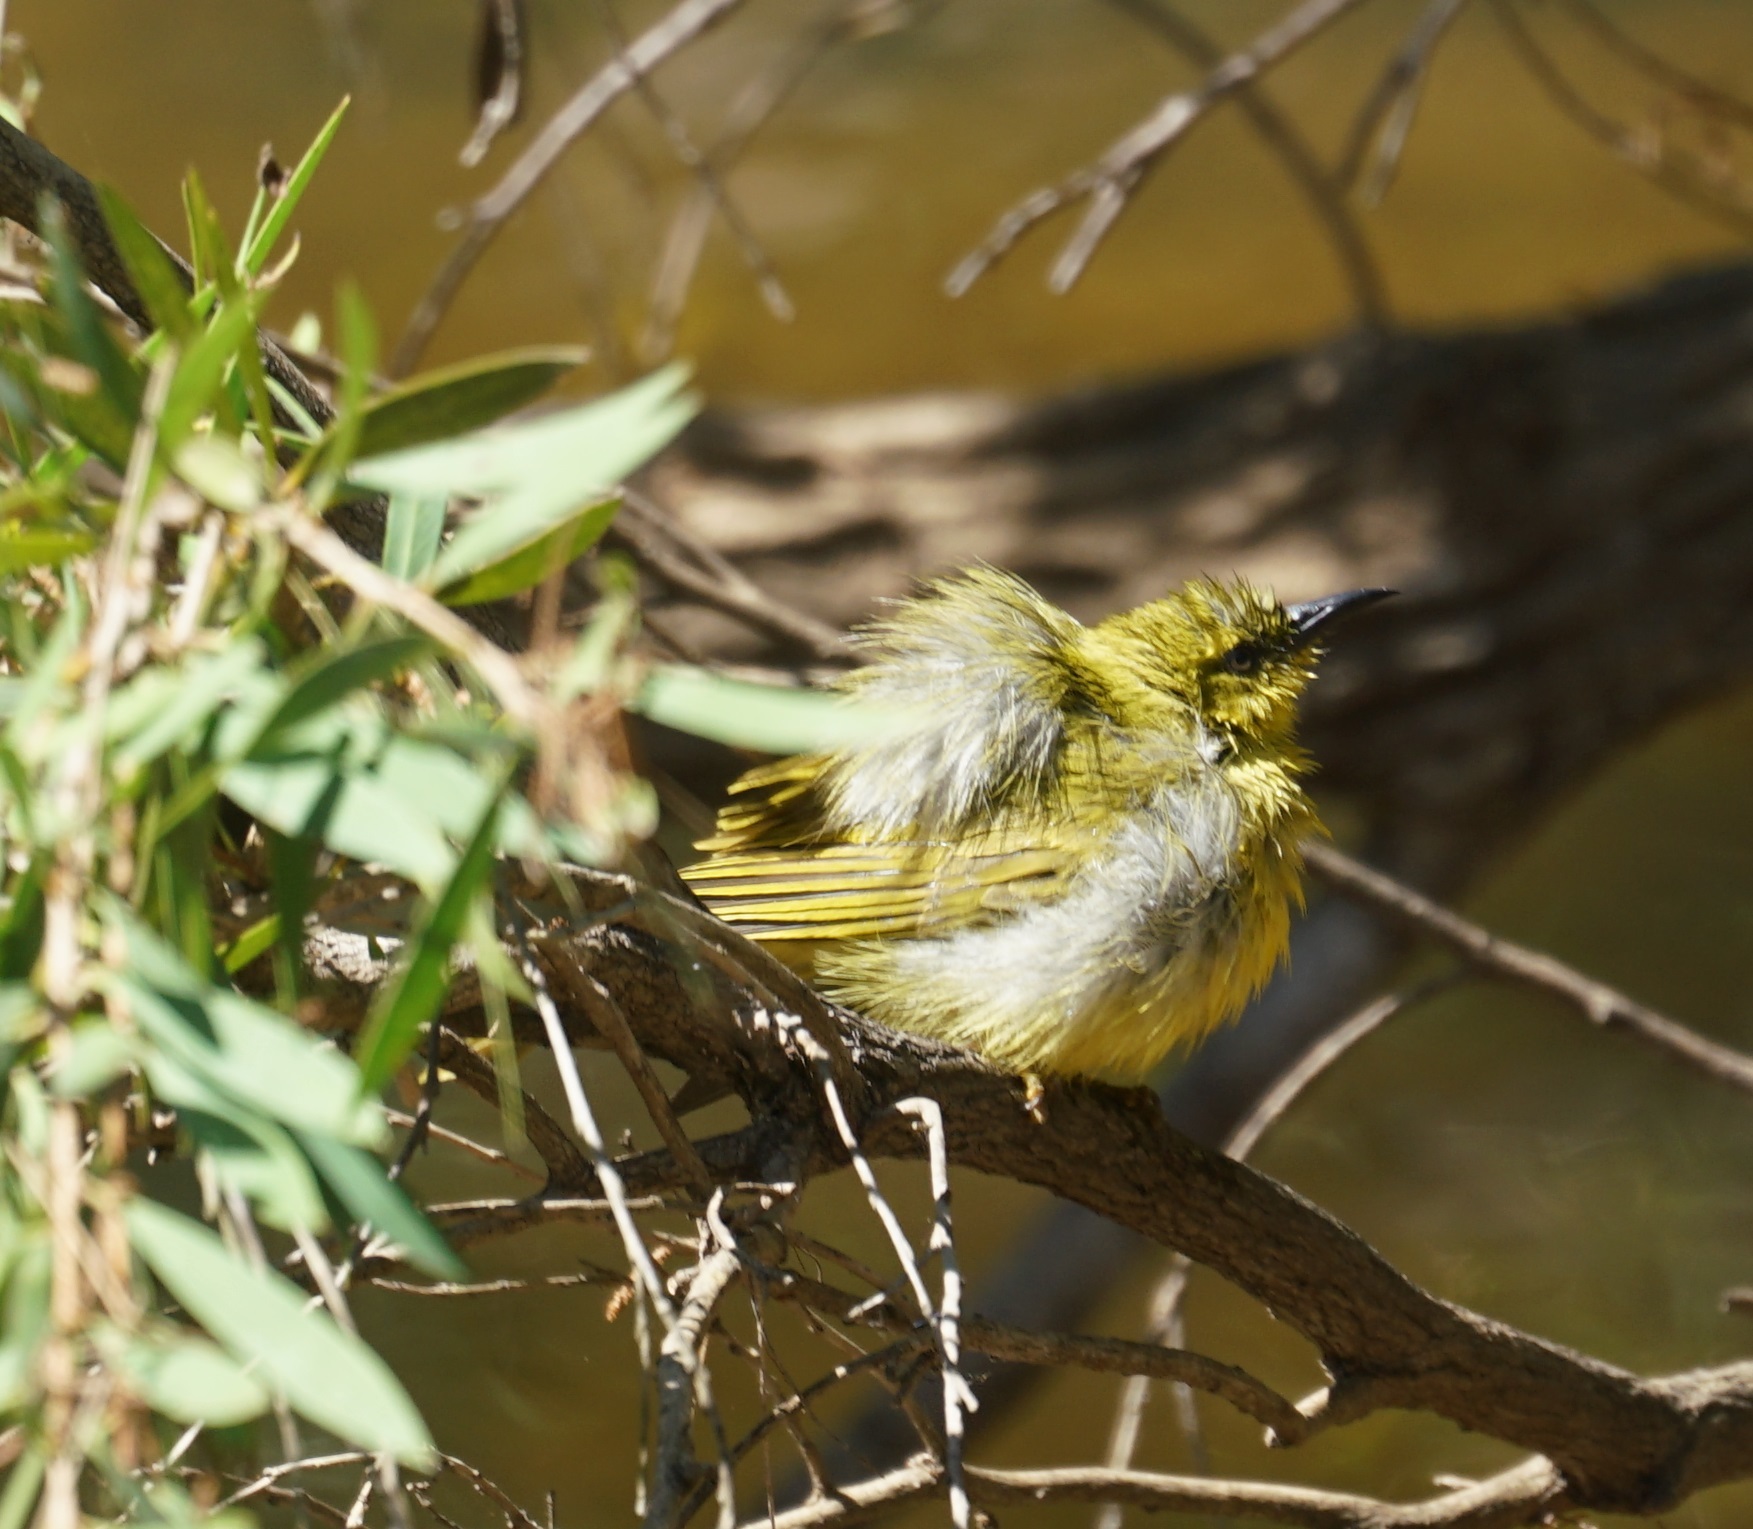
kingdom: Animalia
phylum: Chordata
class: Aves
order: Passeriformes
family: Meliphagidae
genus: Stomiopera
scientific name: Stomiopera flava
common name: Yellow honeyeater
